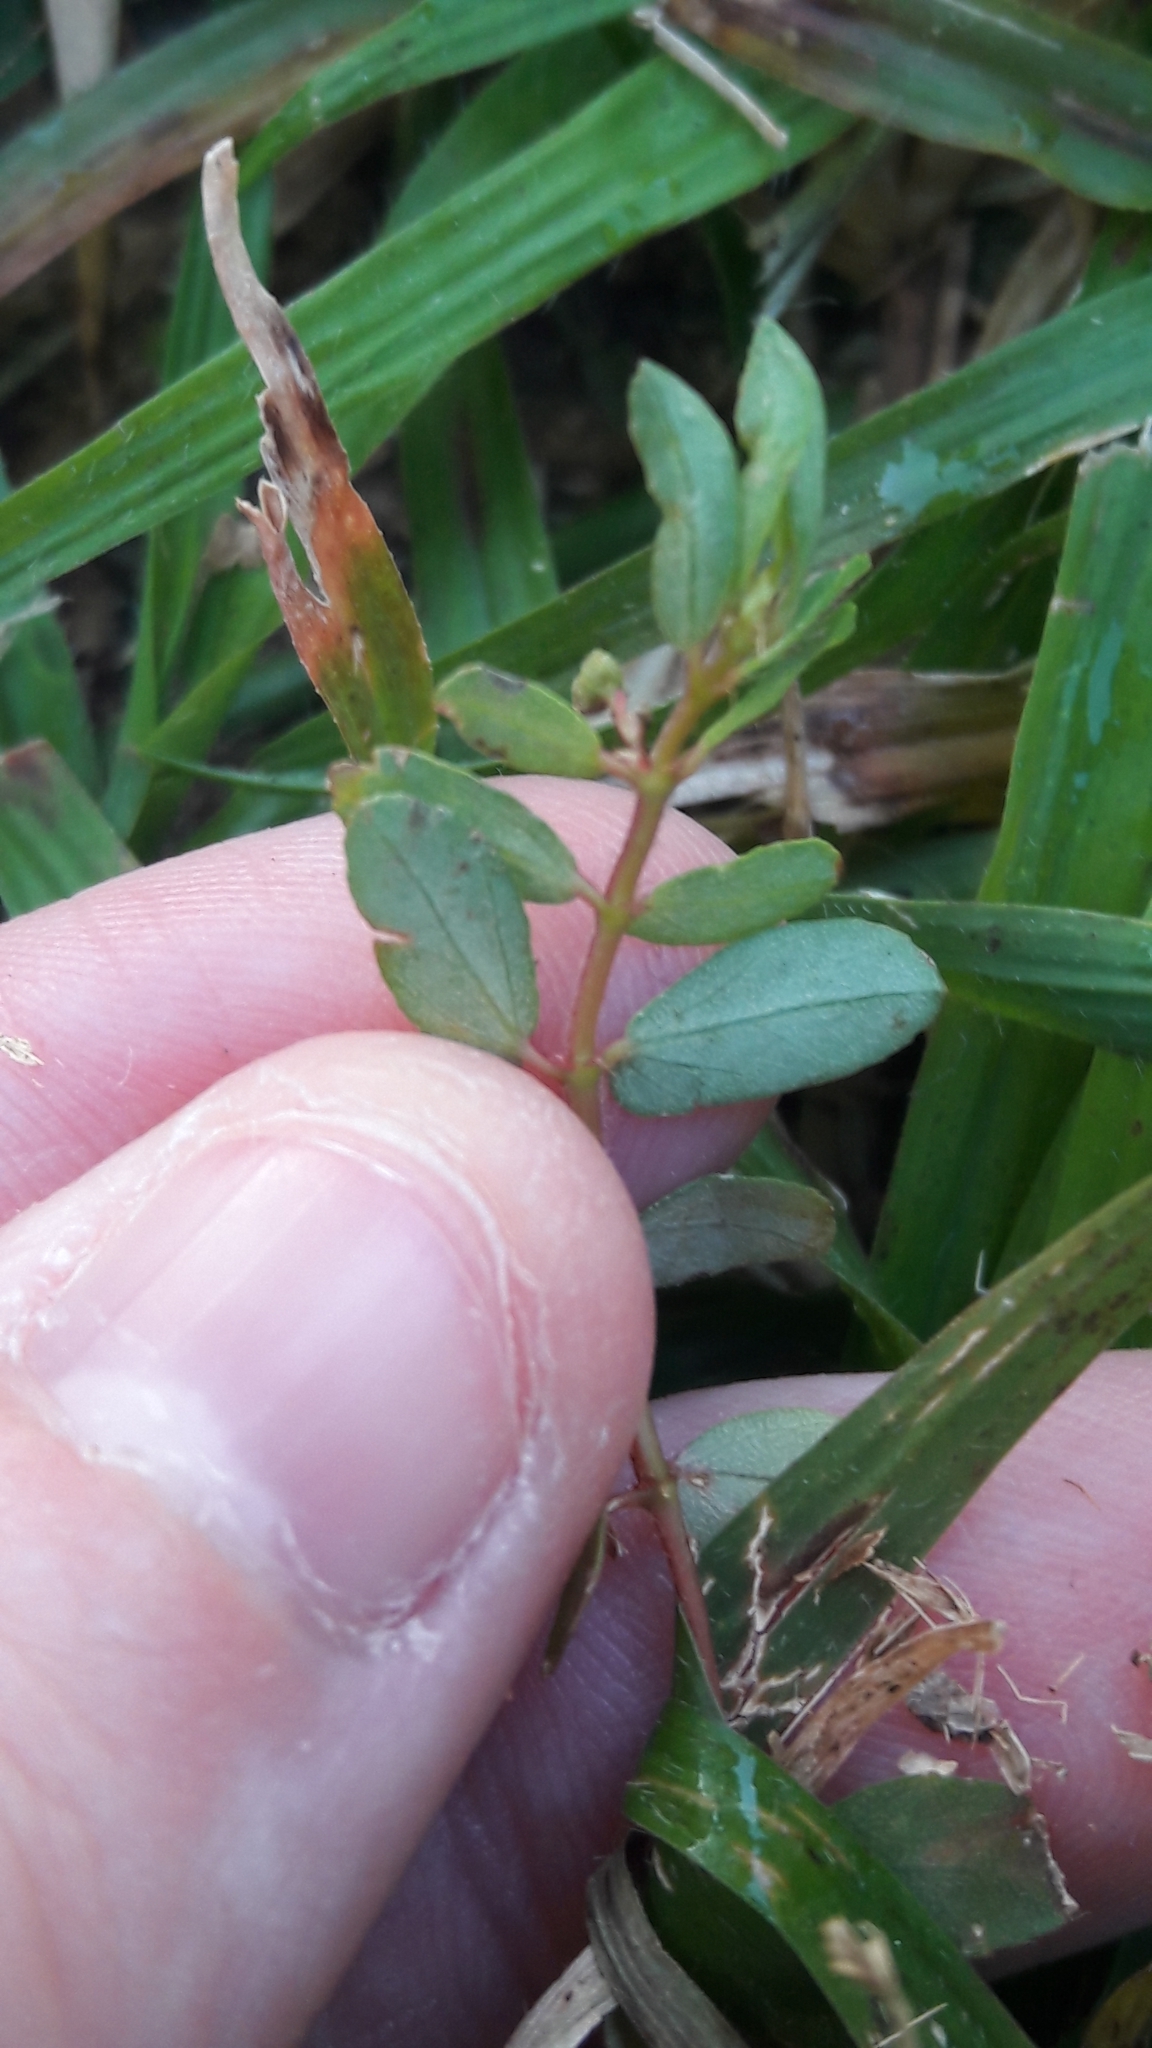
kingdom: Plantae
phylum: Tracheophyta
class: Magnoliopsida
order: Malpighiales
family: Euphorbiaceae
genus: Euphorbia
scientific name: Euphorbia maculata
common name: Spotted spurge
